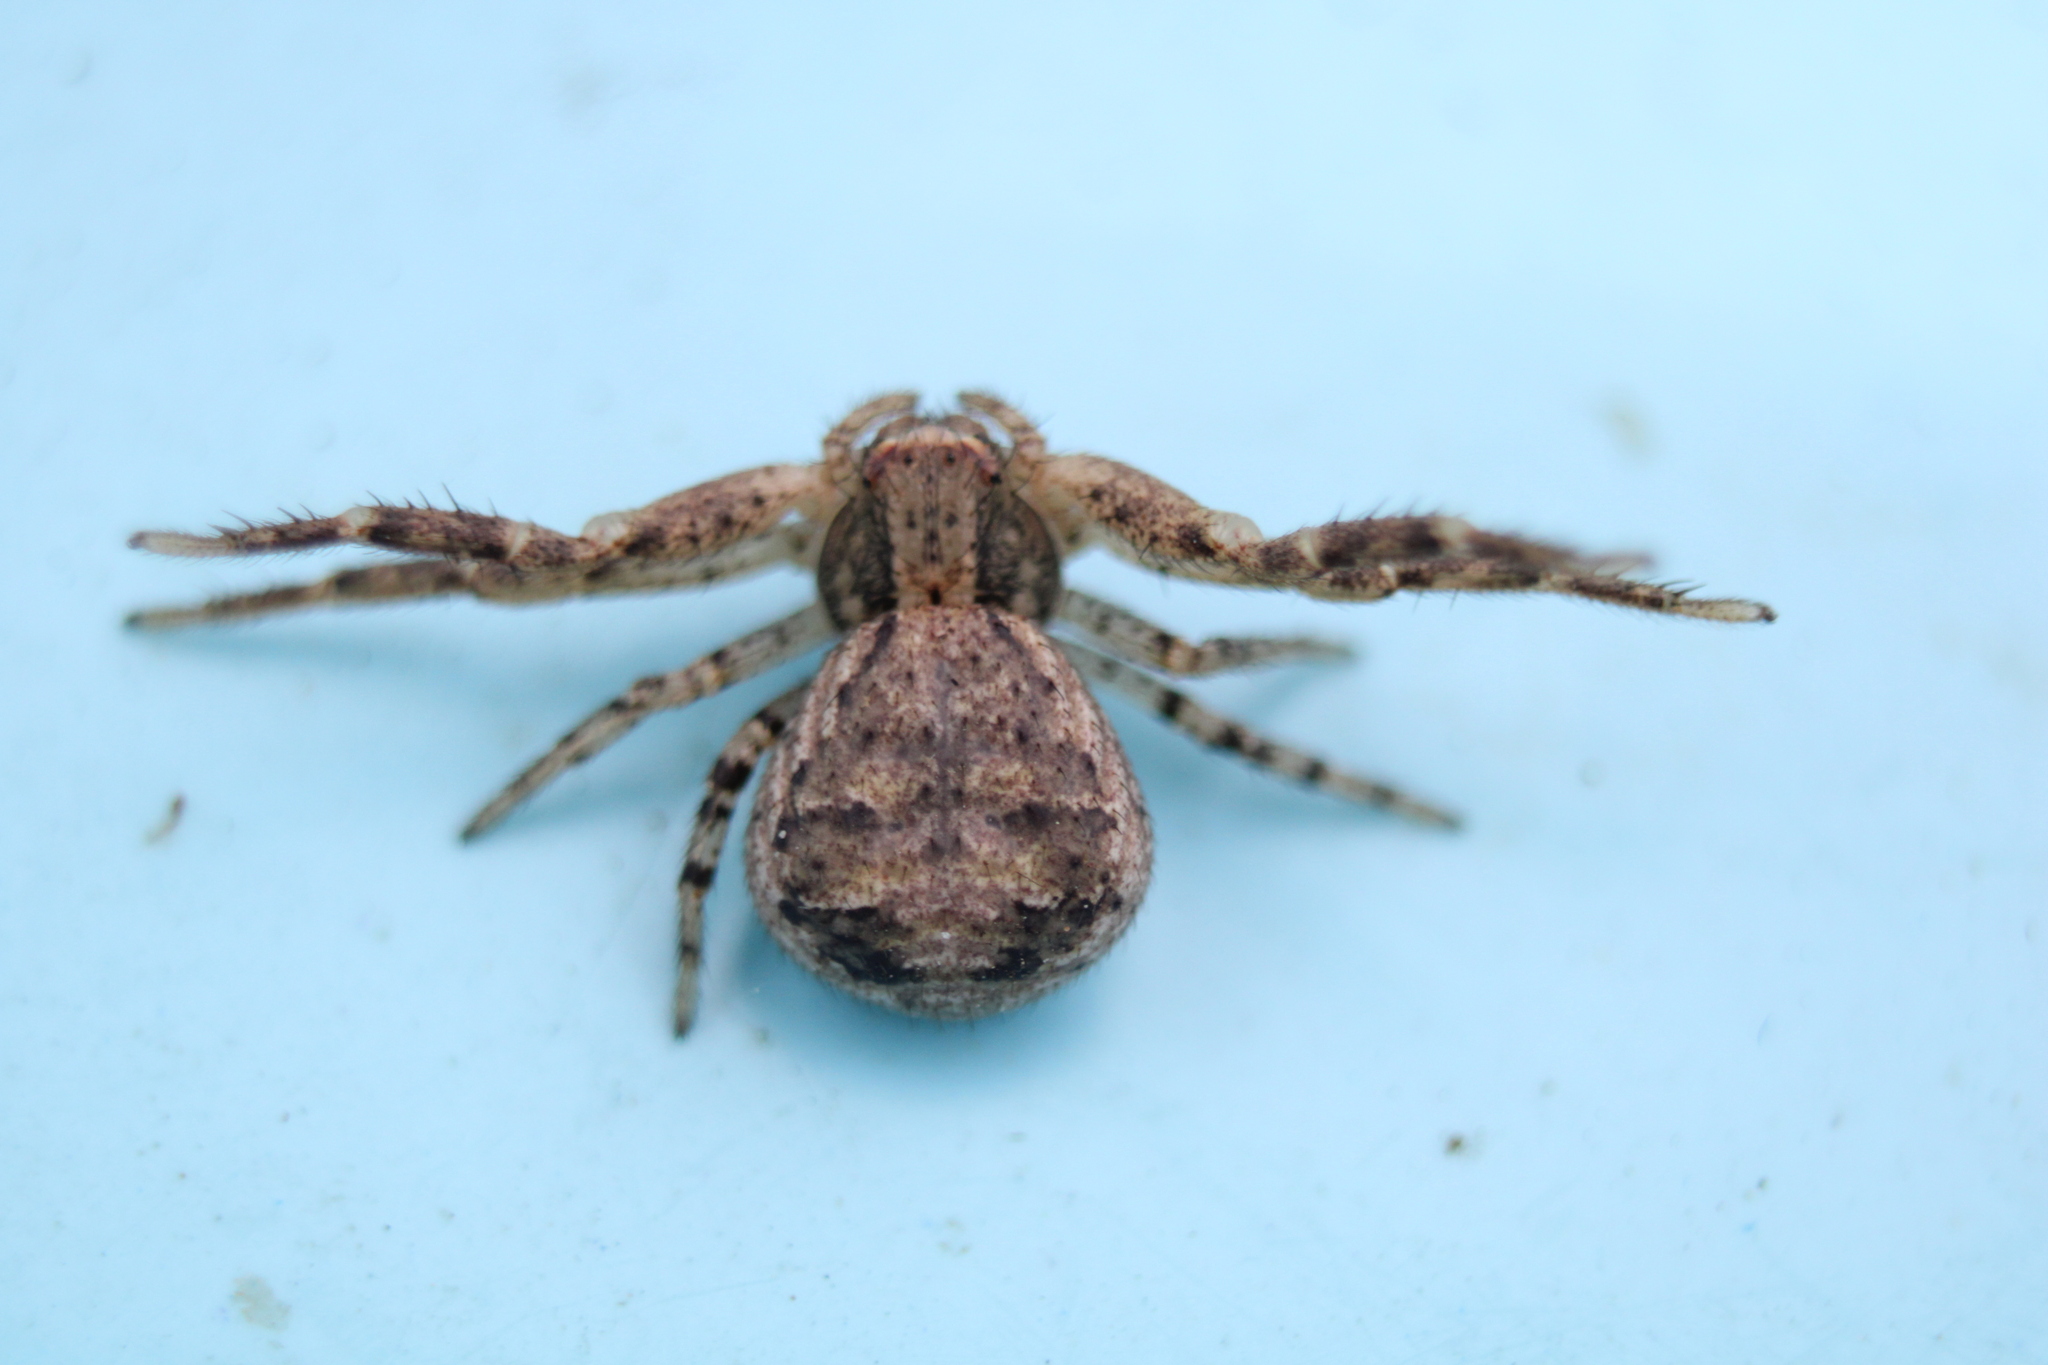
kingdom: Animalia
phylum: Arthropoda
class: Arachnida
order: Araneae
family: Thomisidae
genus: Xysticus
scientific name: Xysticus ferox
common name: Tan crab spider
